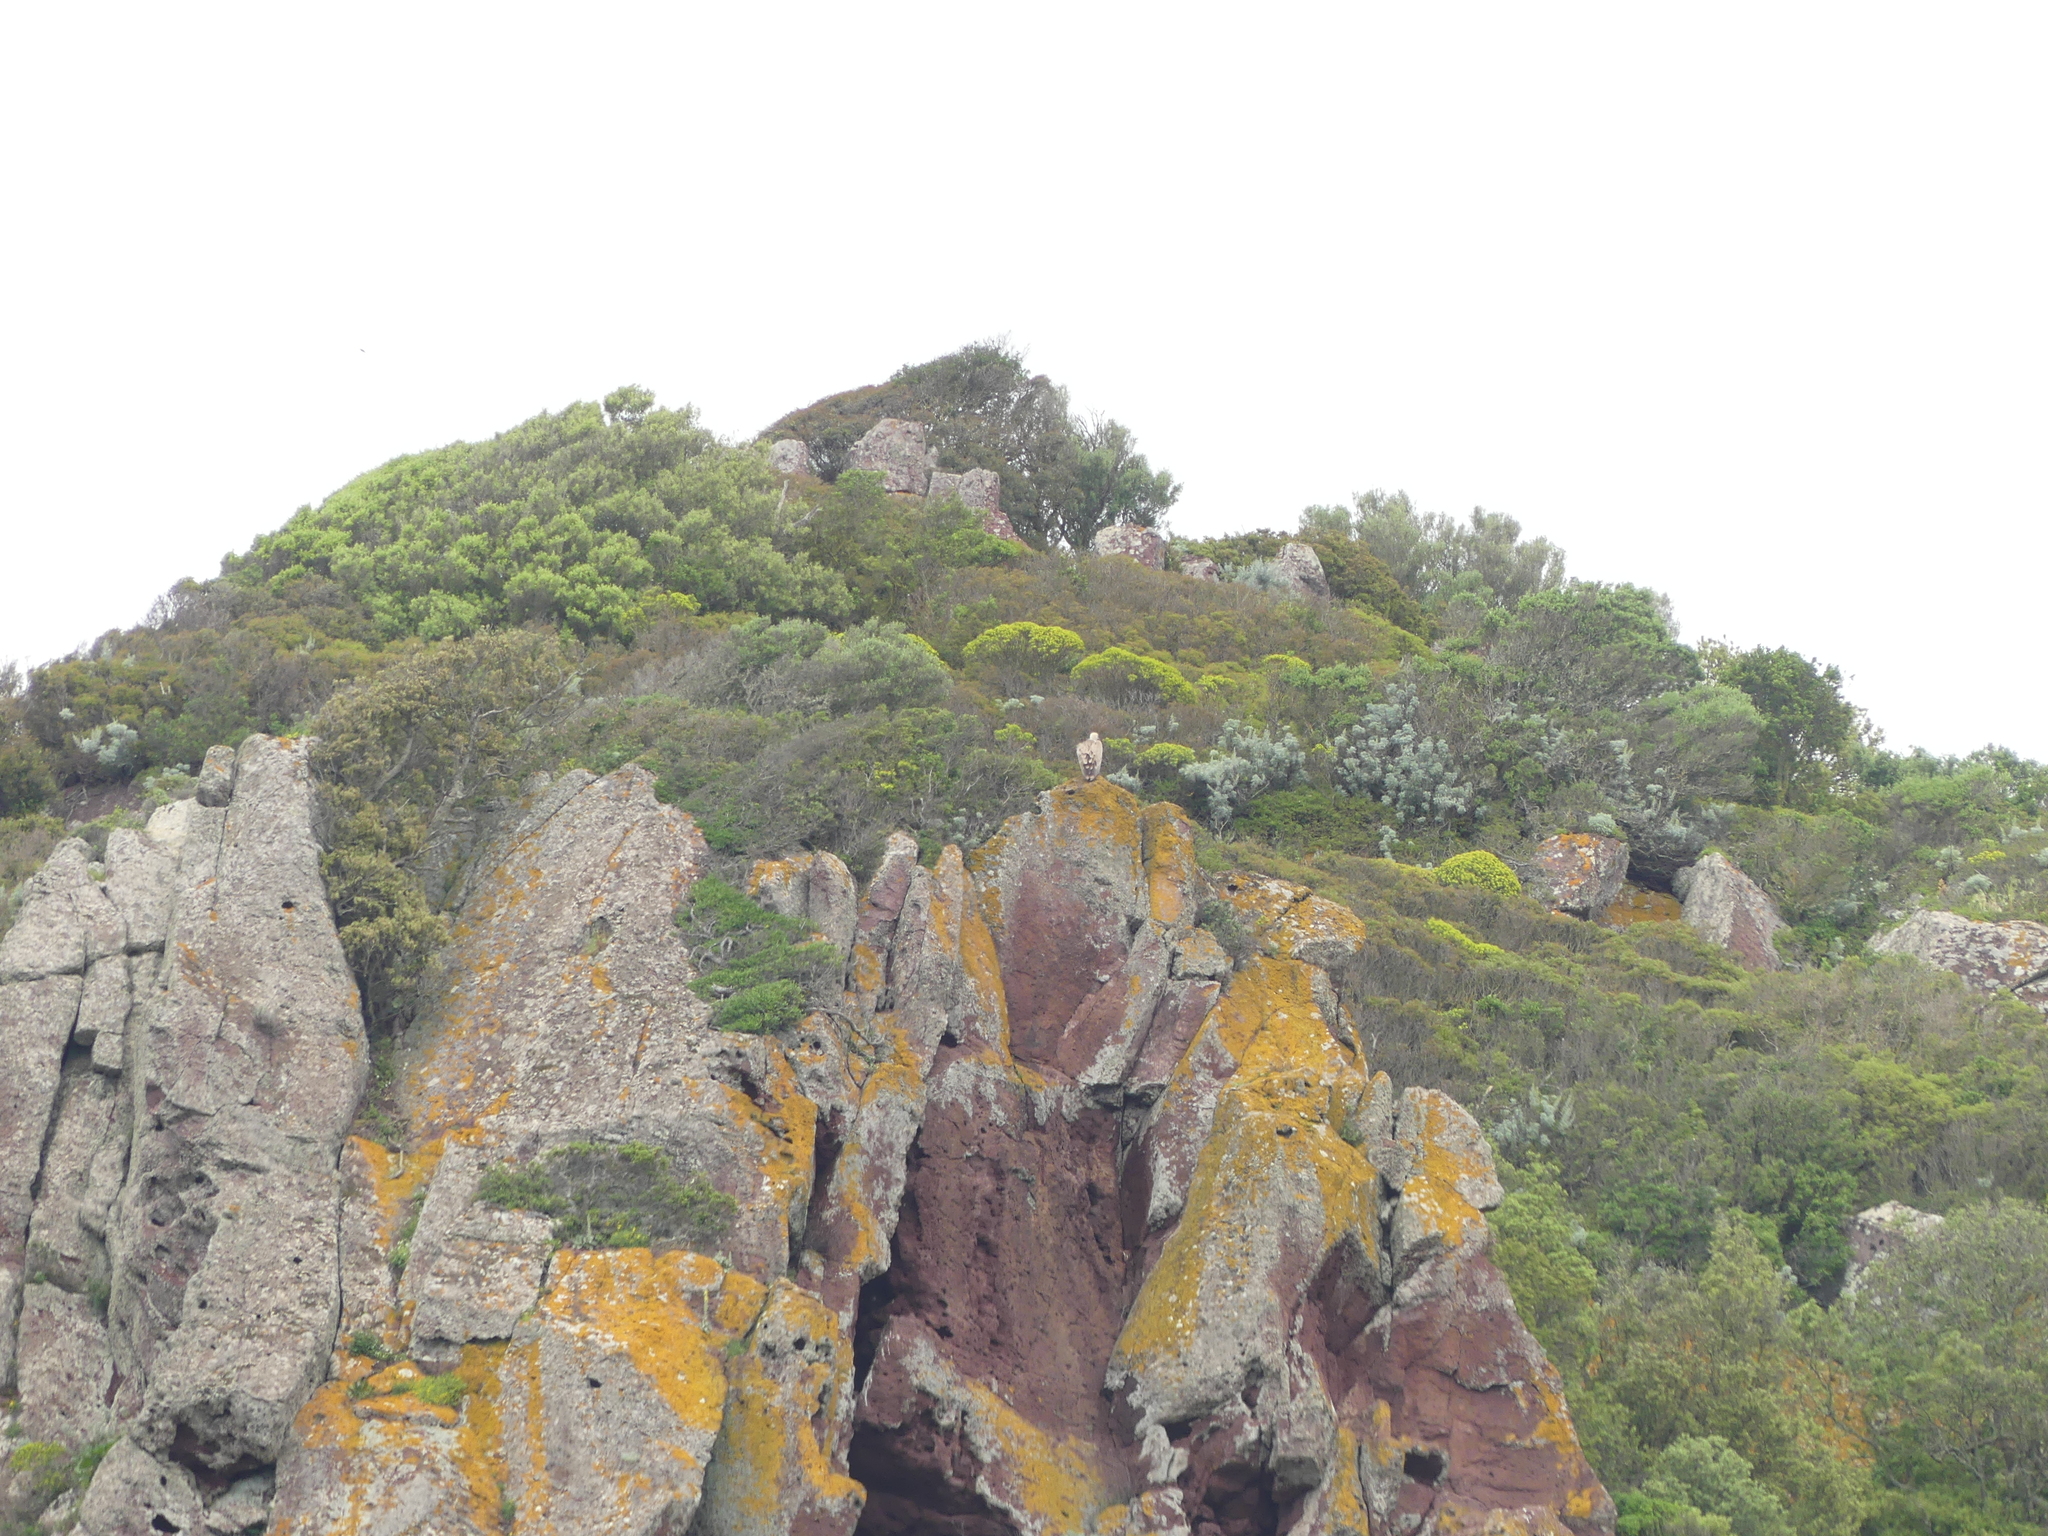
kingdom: Animalia
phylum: Chordata
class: Aves
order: Accipitriformes
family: Accipitridae
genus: Gyps
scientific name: Gyps fulvus
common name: Griffon vulture
